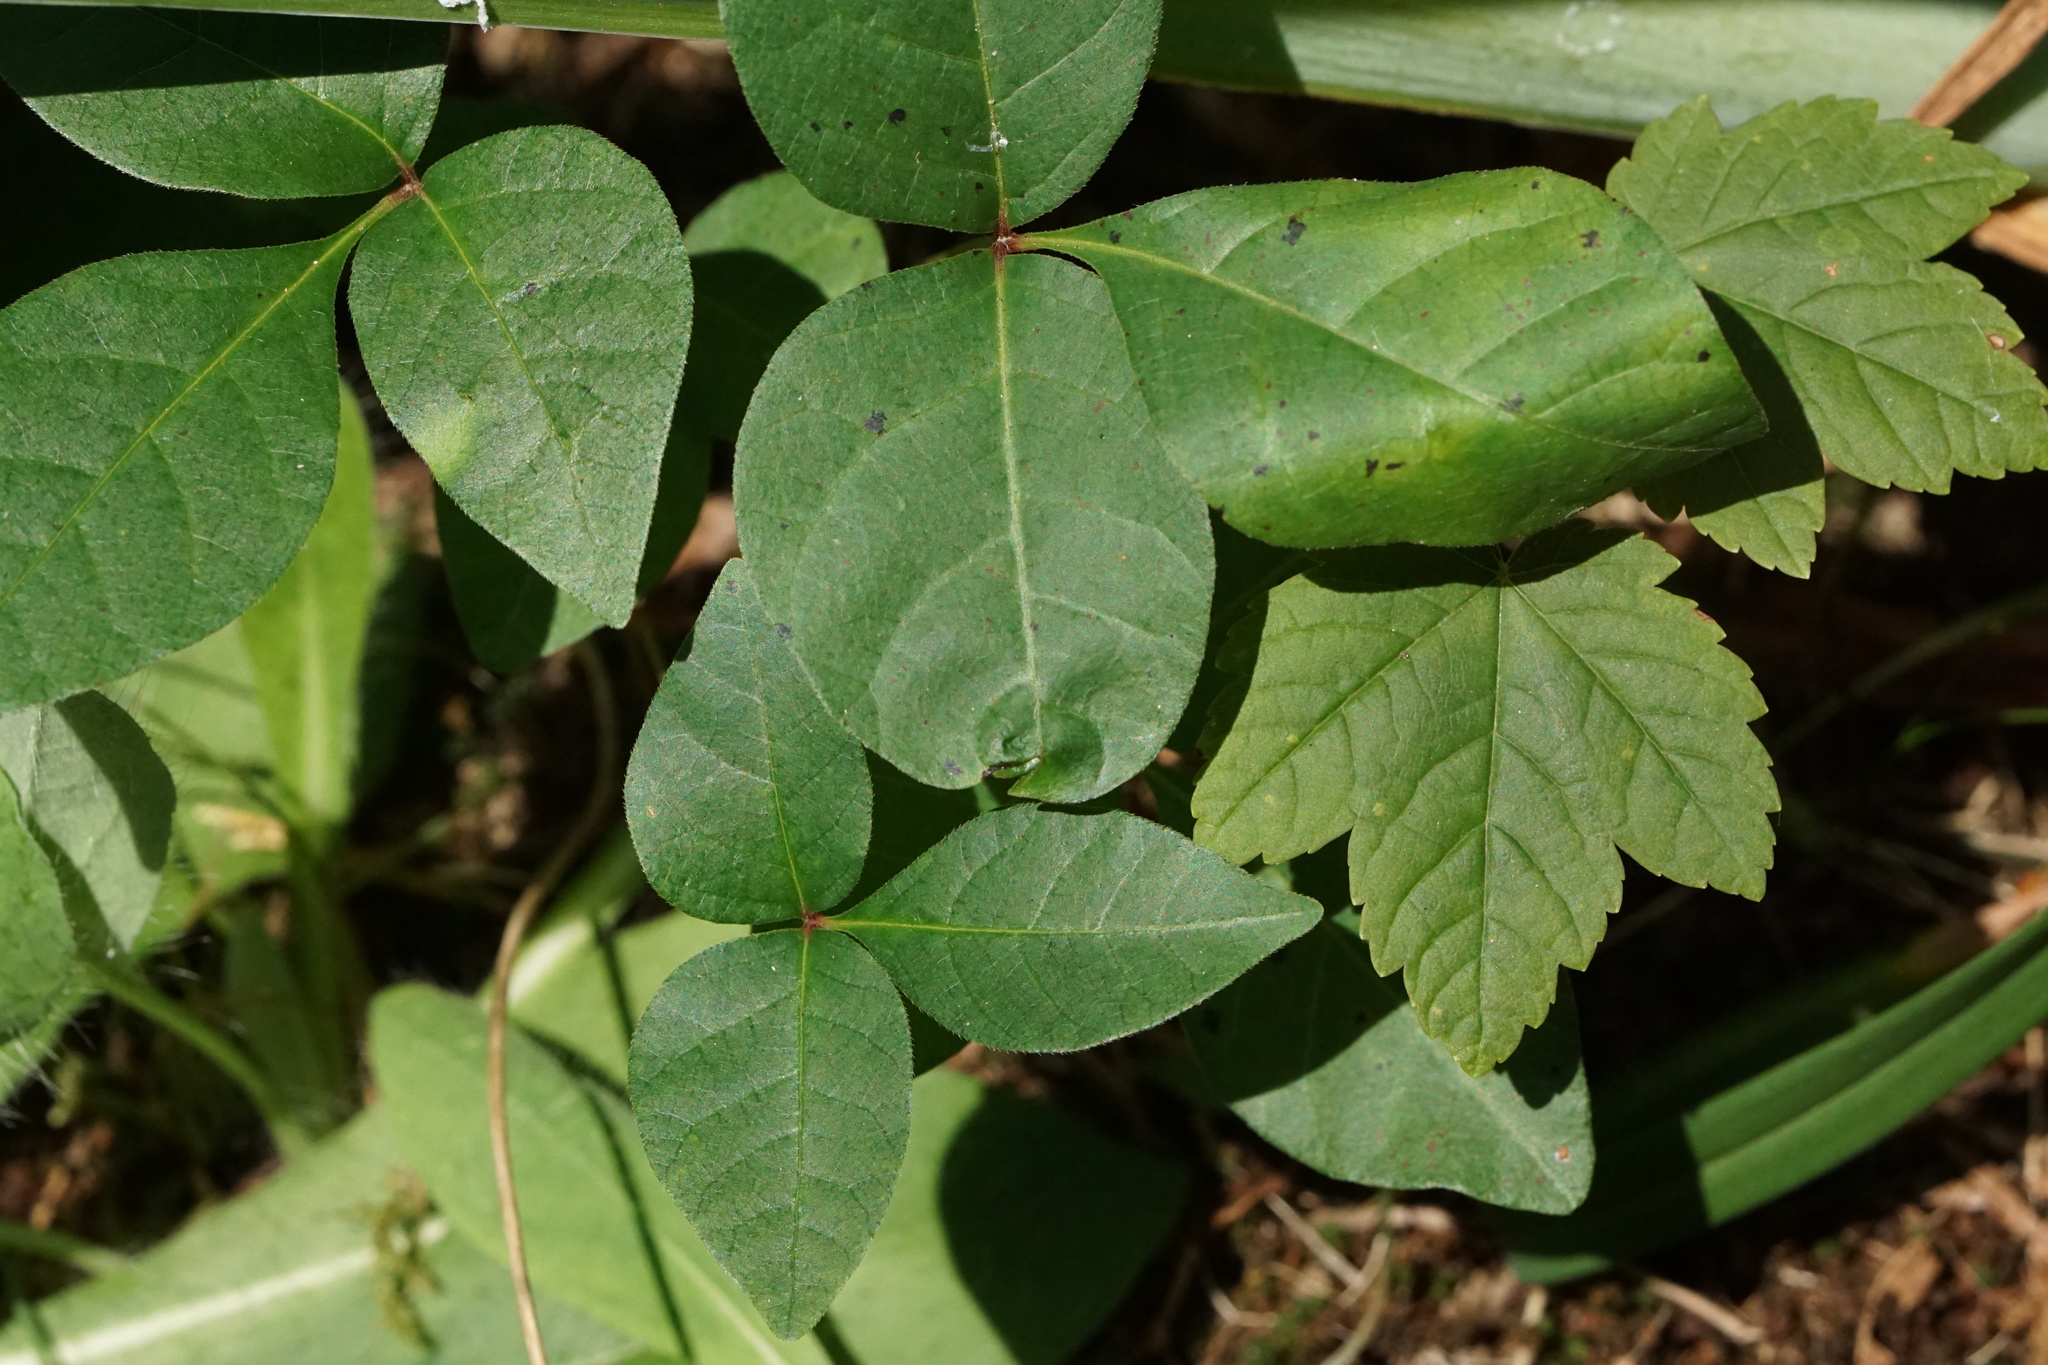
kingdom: Plantae
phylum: Tracheophyta
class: Magnoliopsida
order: Sapindales
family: Anacardiaceae
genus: Toxicodendron
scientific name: Toxicodendron radicans
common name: Poison ivy
